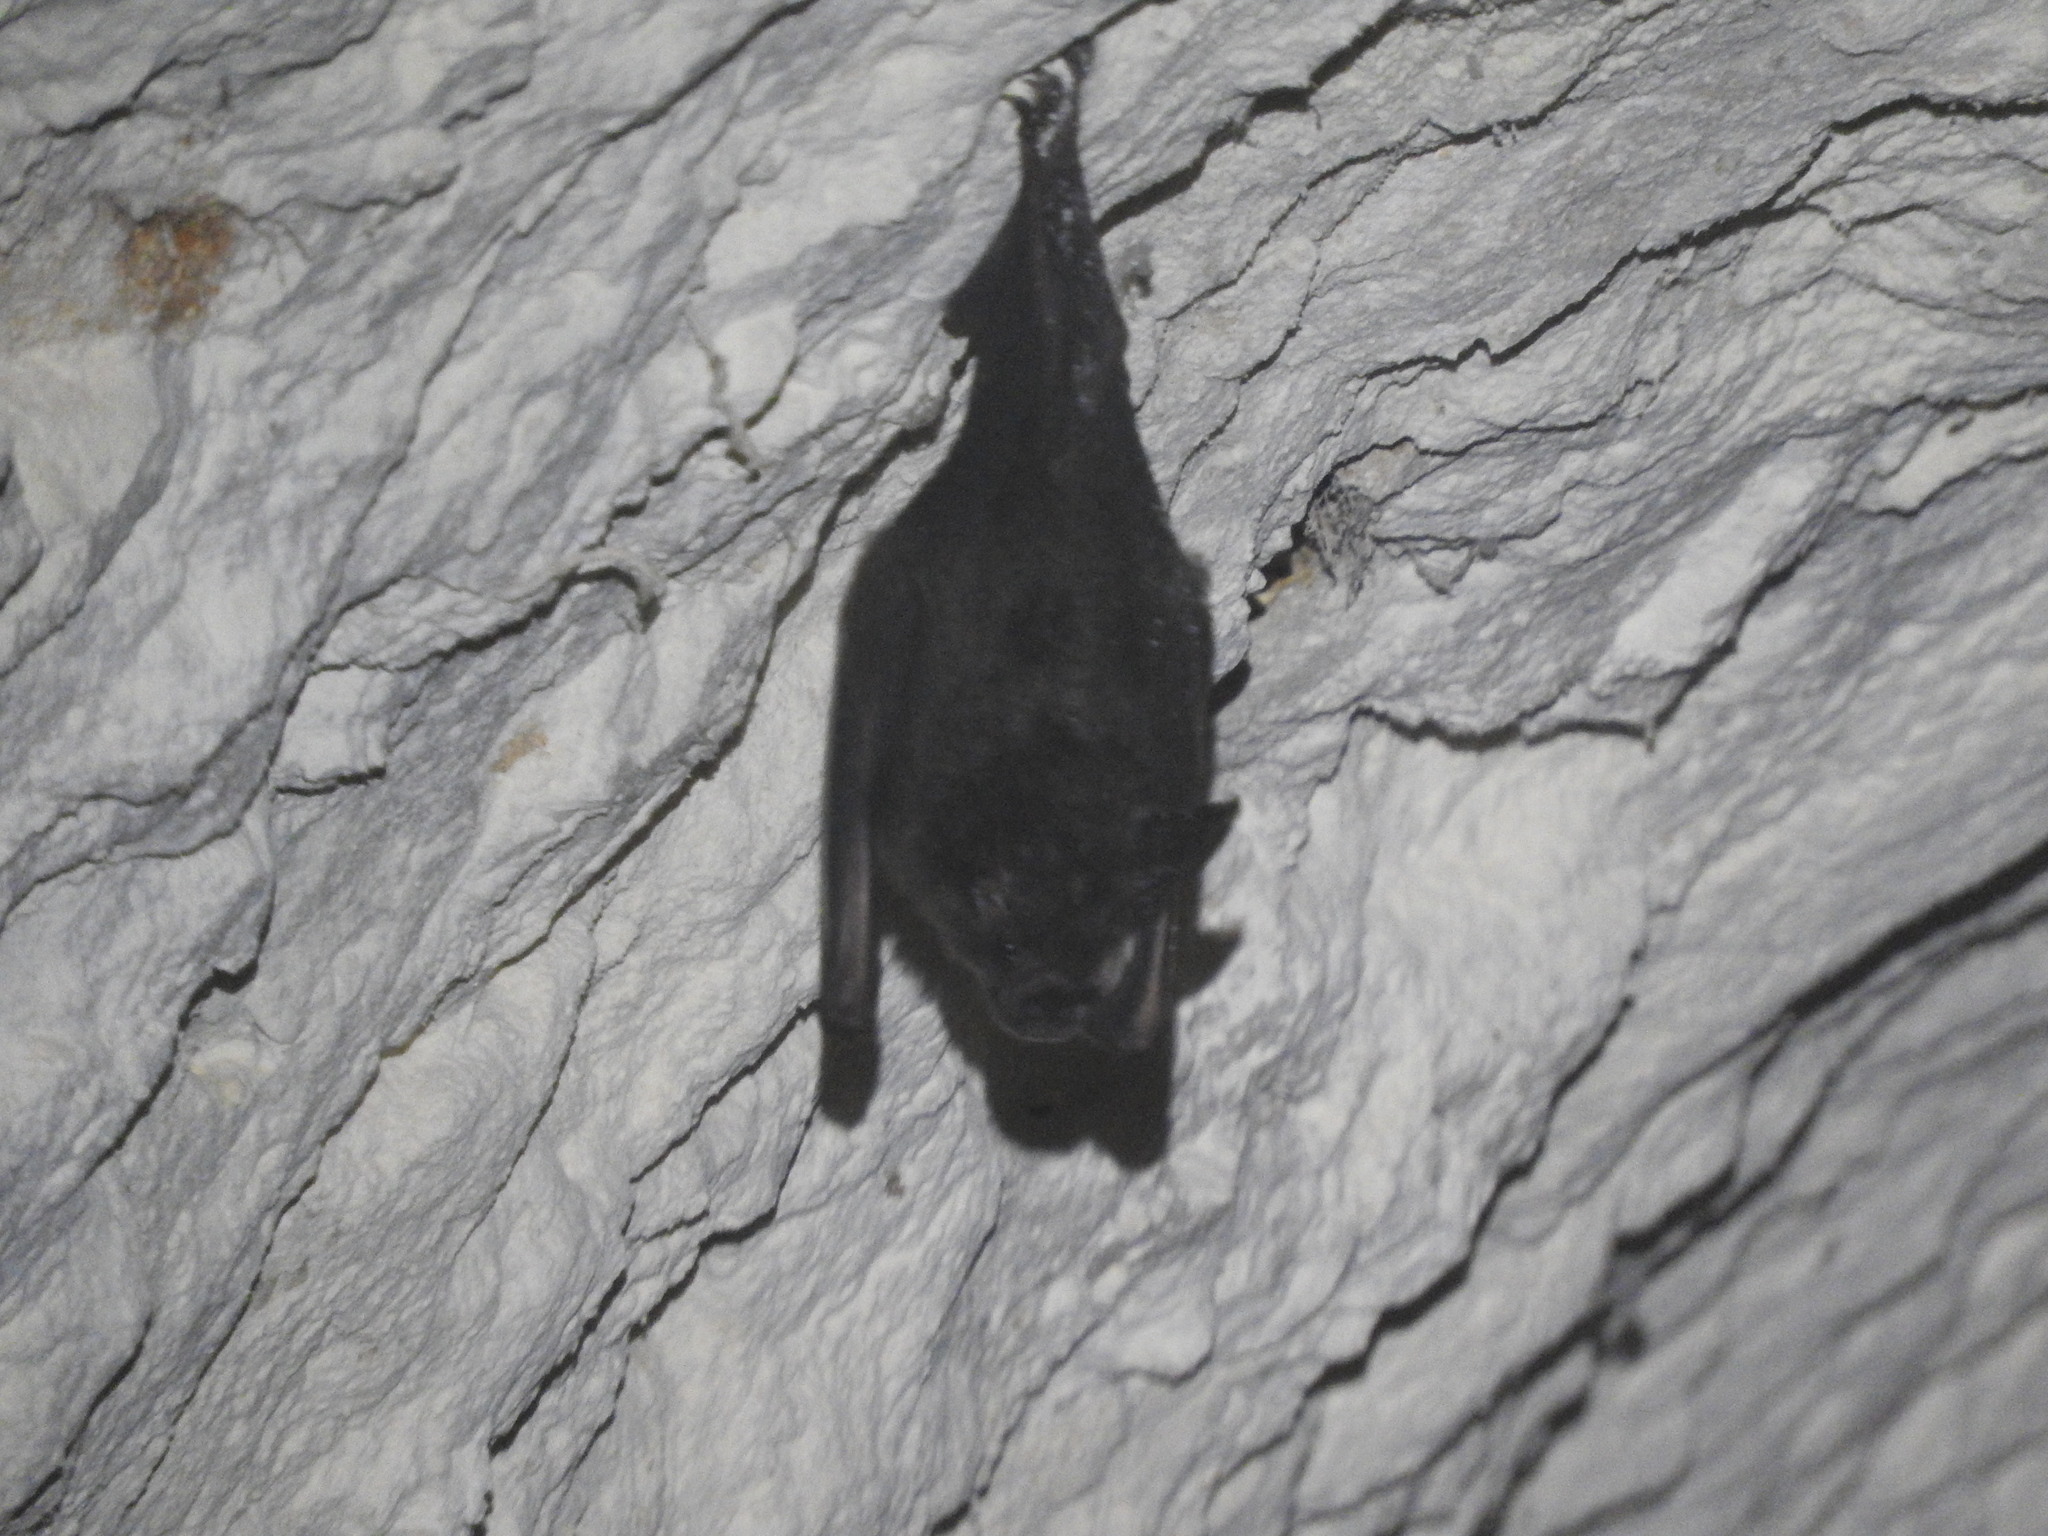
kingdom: Animalia
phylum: Chordata
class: Mammalia
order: Chiroptera
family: Phyllostomidae
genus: Mimon
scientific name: Mimon cozumelae
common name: Cozumelan golden bat
